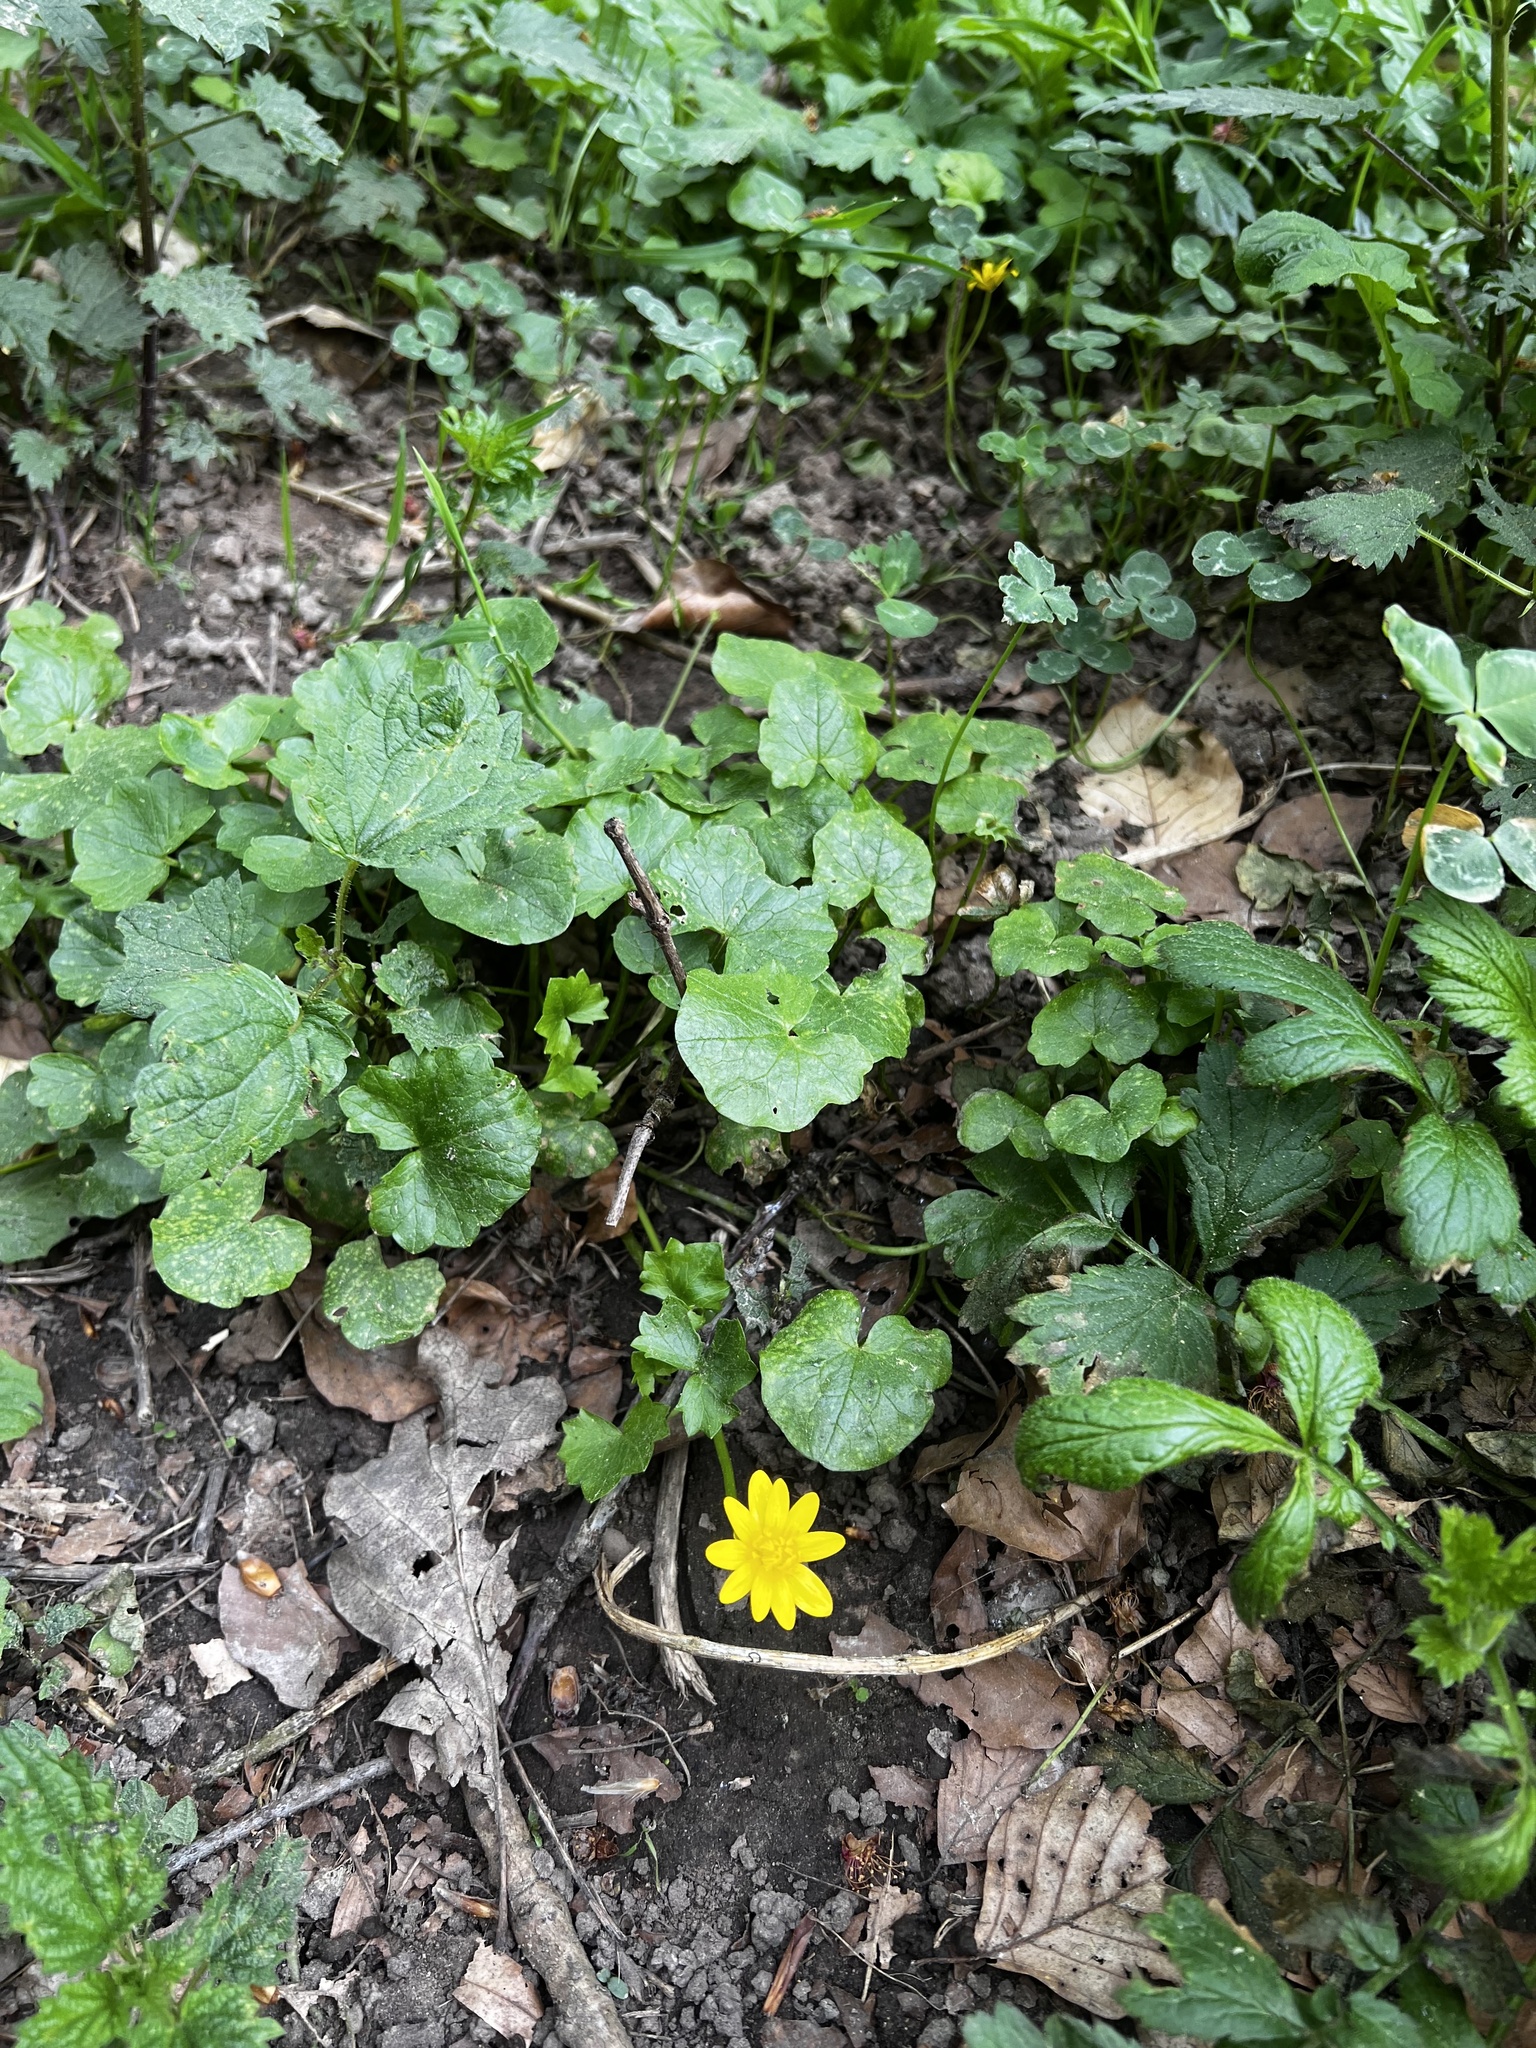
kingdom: Plantae
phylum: Tracheophyta
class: Magnoliopsida
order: Ranunculales
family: Ranunculaceae
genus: Ficaria
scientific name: Ficaria verna
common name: Lesser celandine
